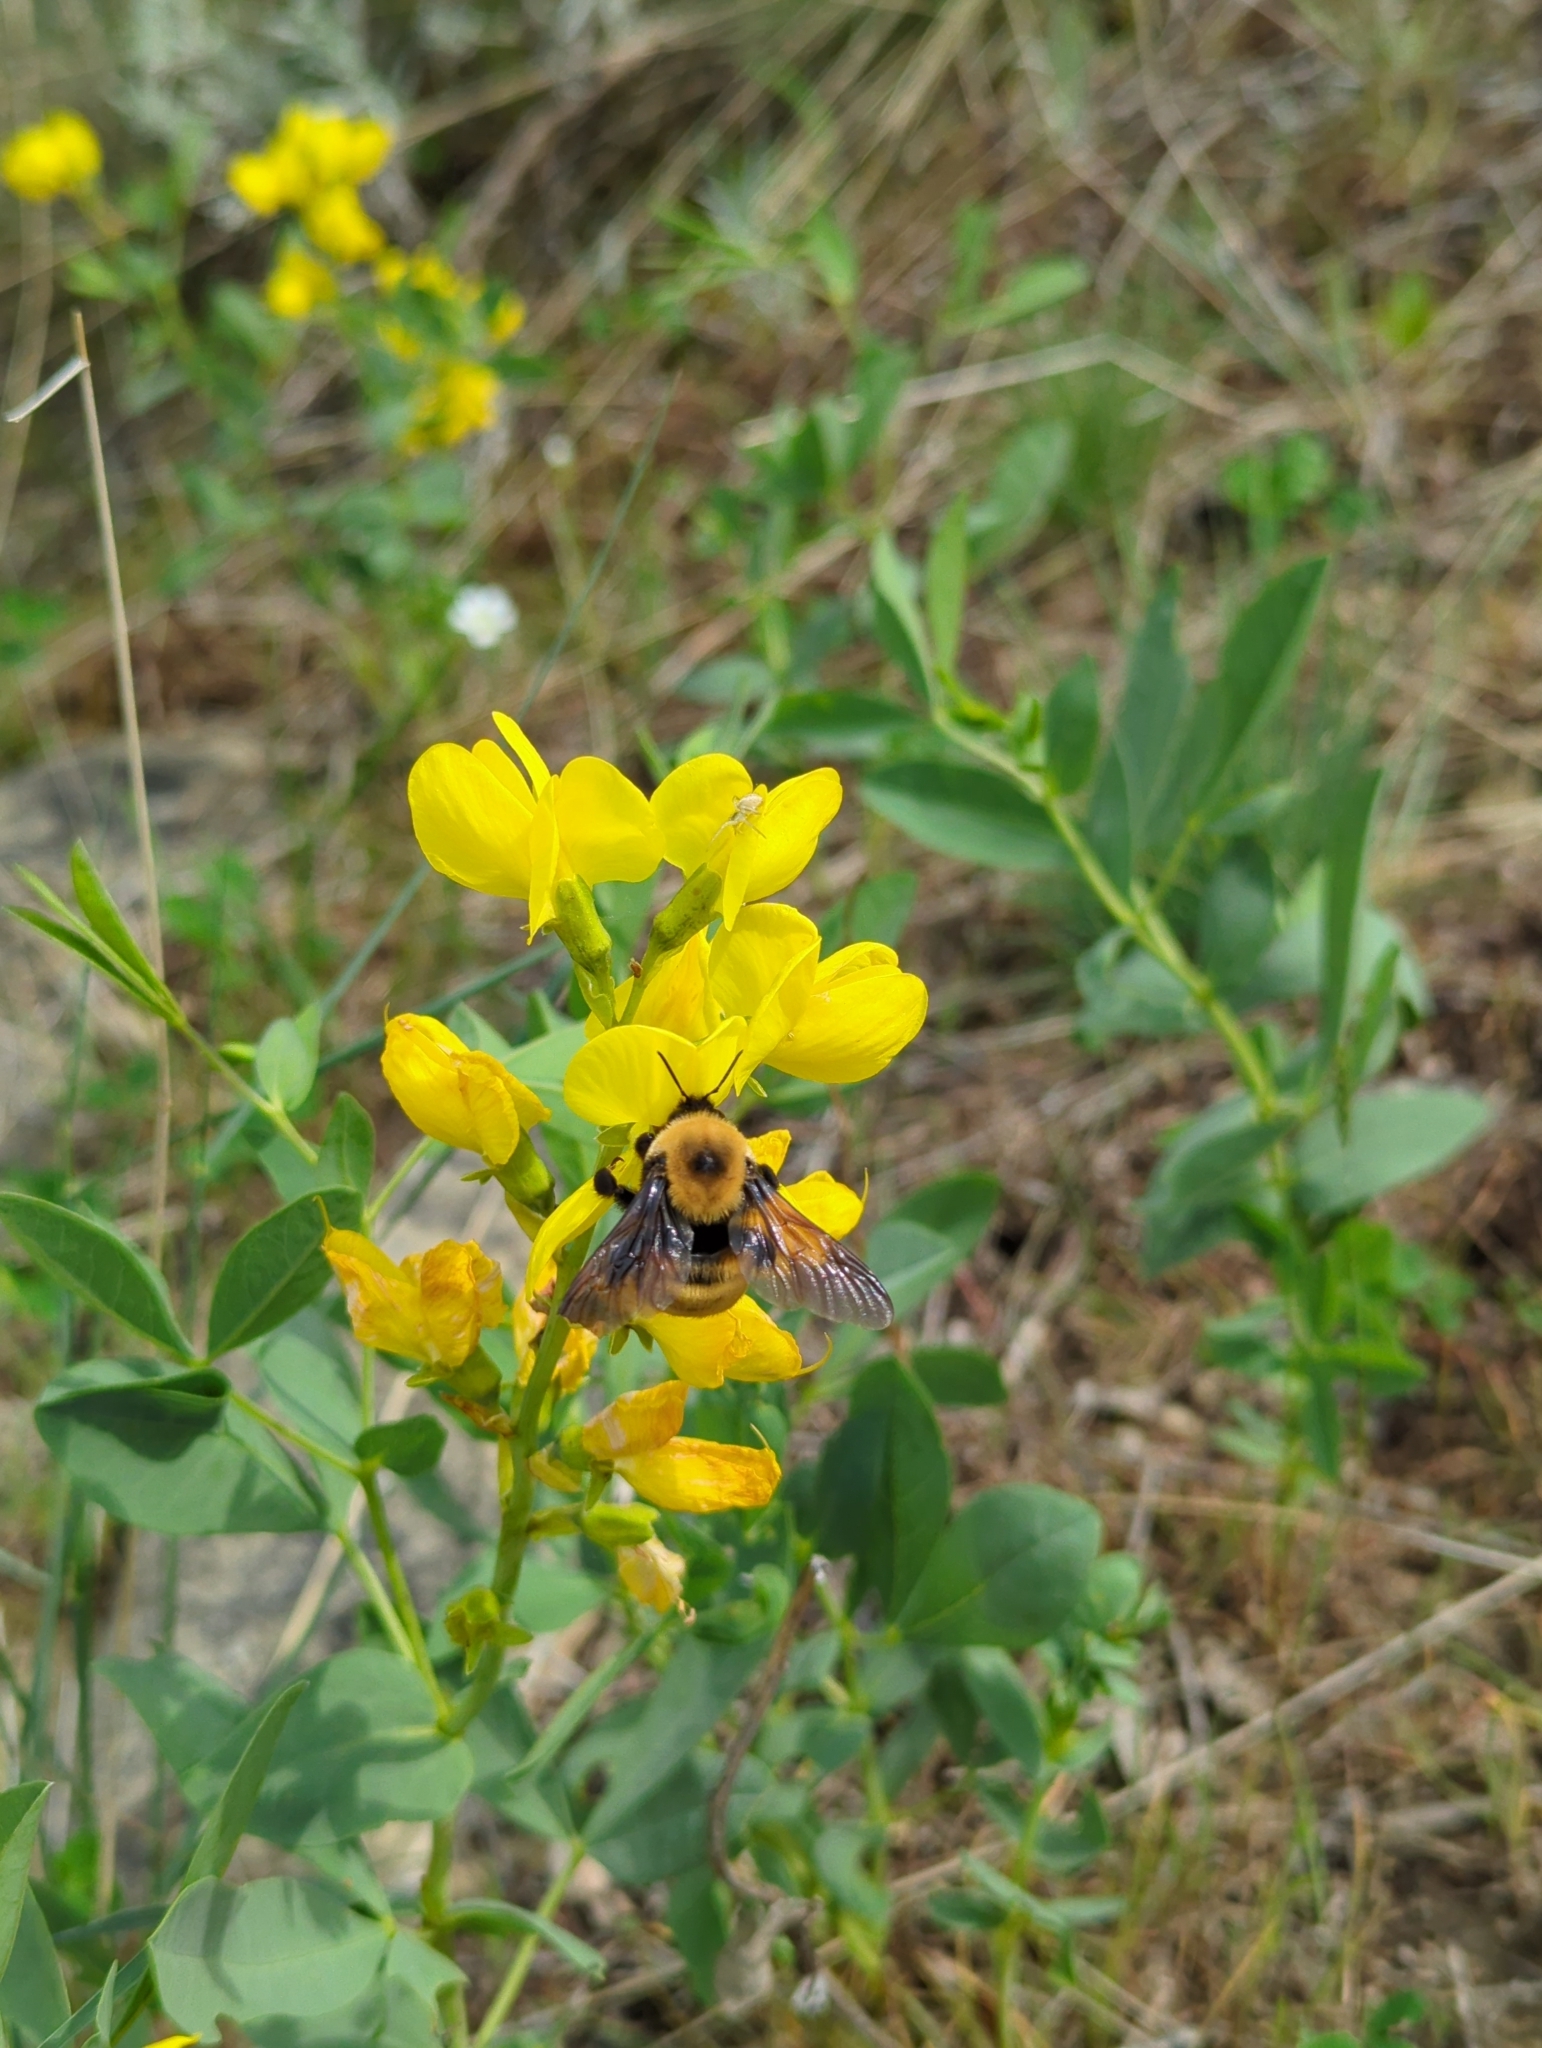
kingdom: Animalia
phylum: Arthropoda
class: Insecta
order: Hymenoptera
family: Apidae
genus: Bombus
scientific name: Bombus nevadensis
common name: Nevada bumble bee
